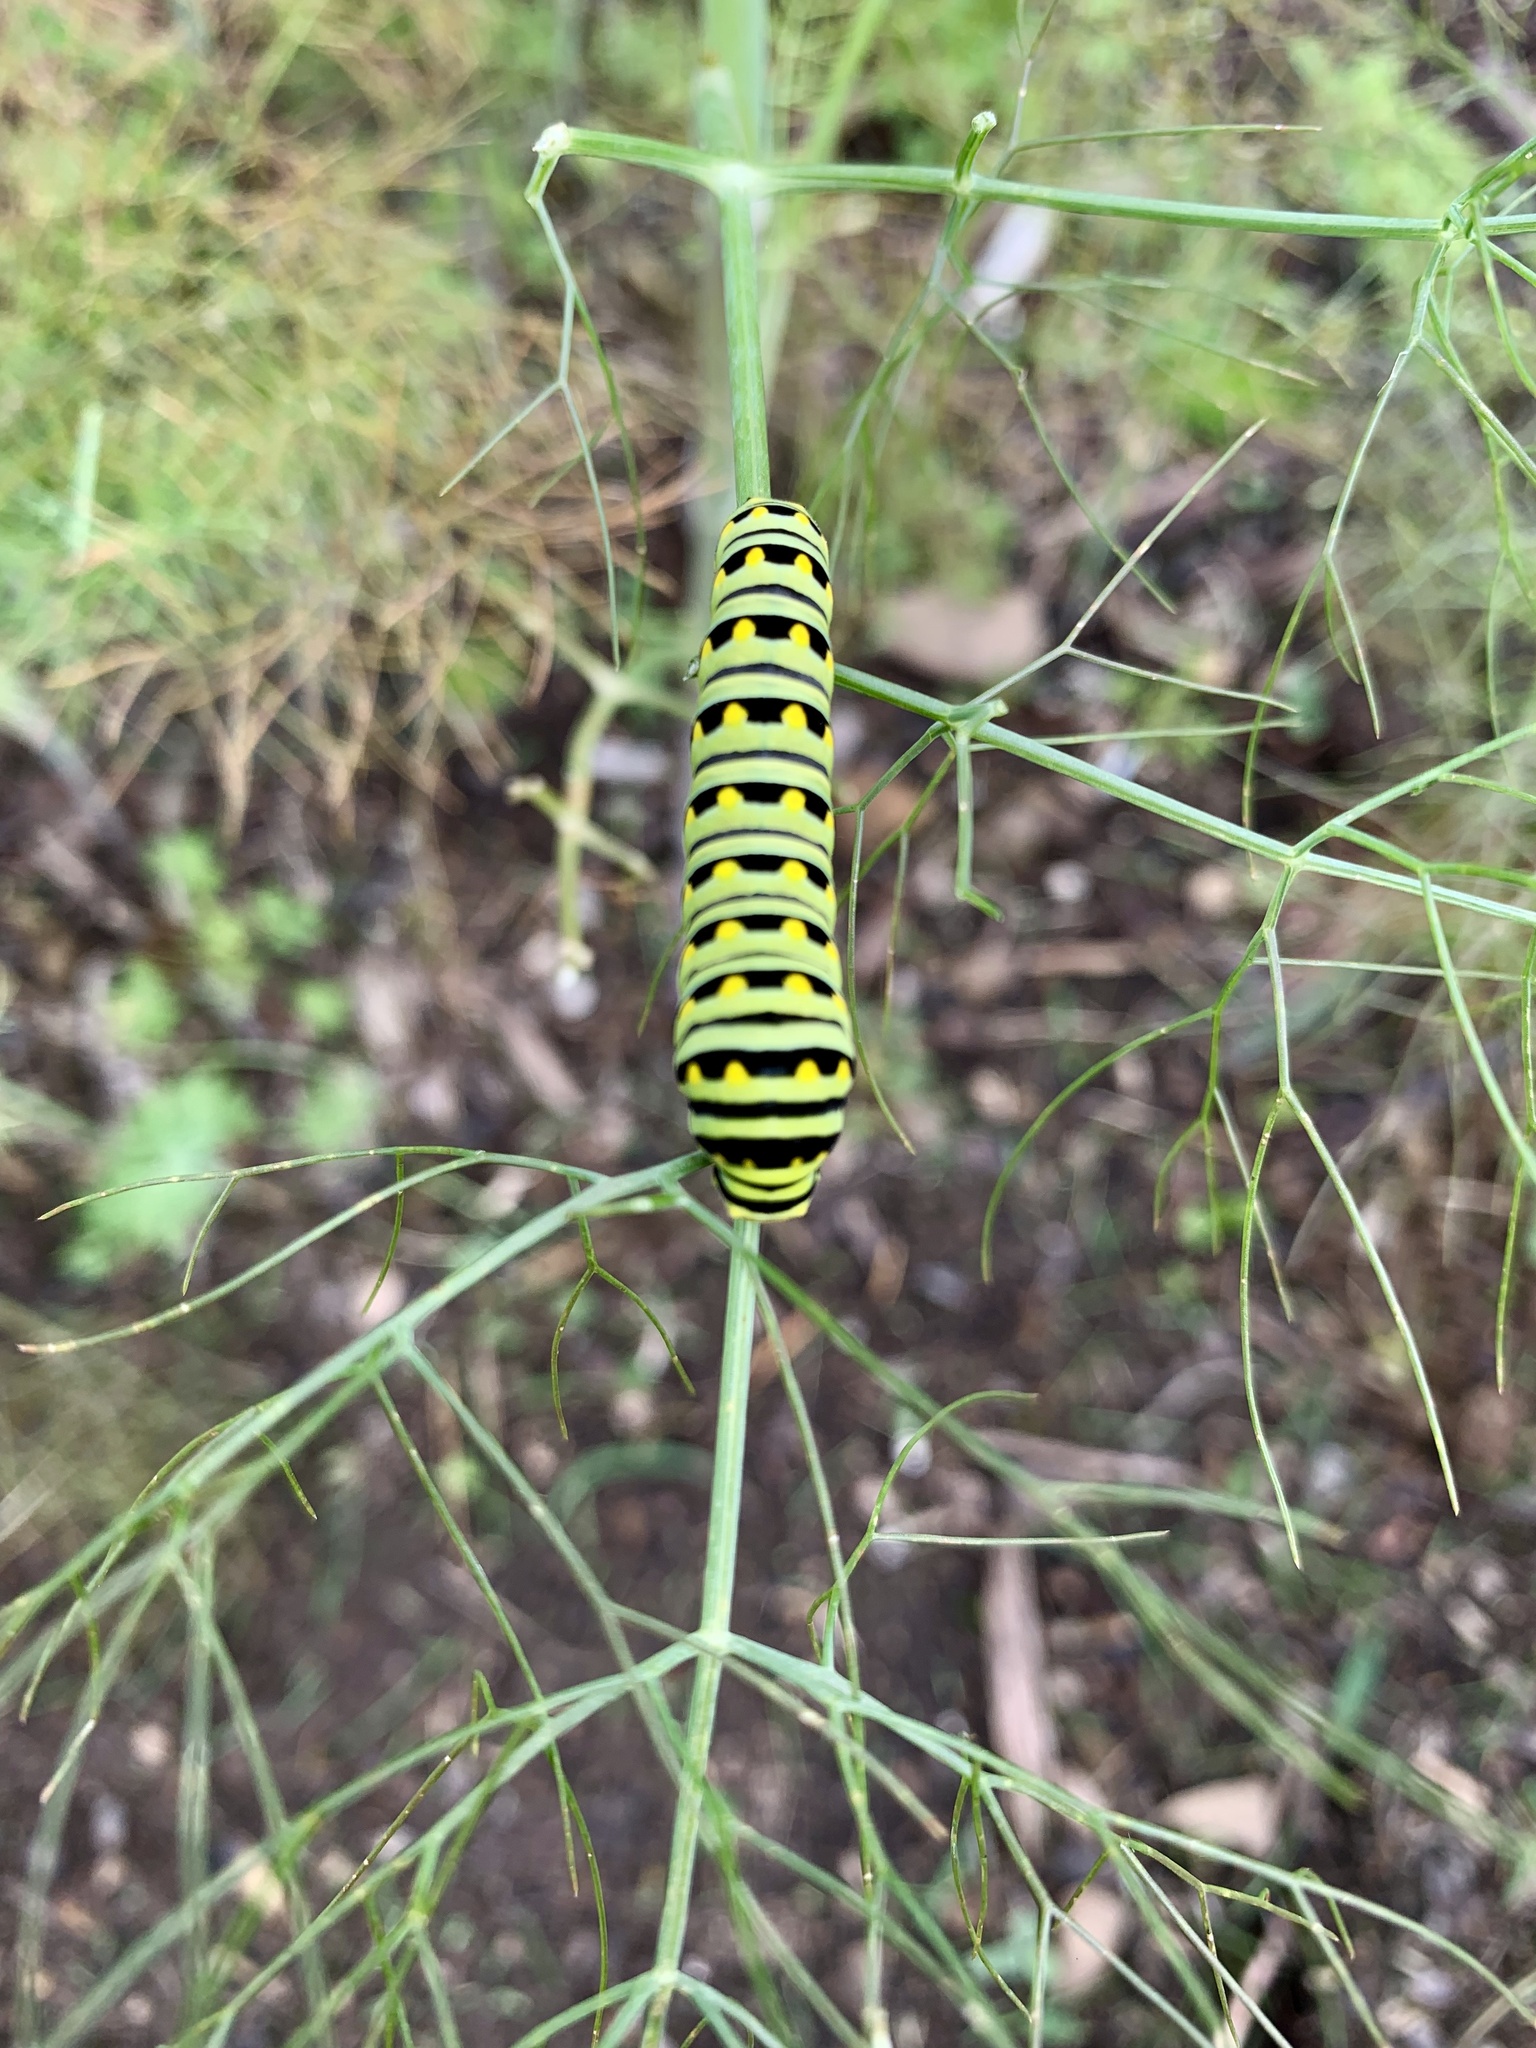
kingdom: Animalia
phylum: Arthropoda
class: Insecta
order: Lepidoptera
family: Papilionidae
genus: Papilio
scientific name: Papilio polyxenes
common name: Black swallowtail
